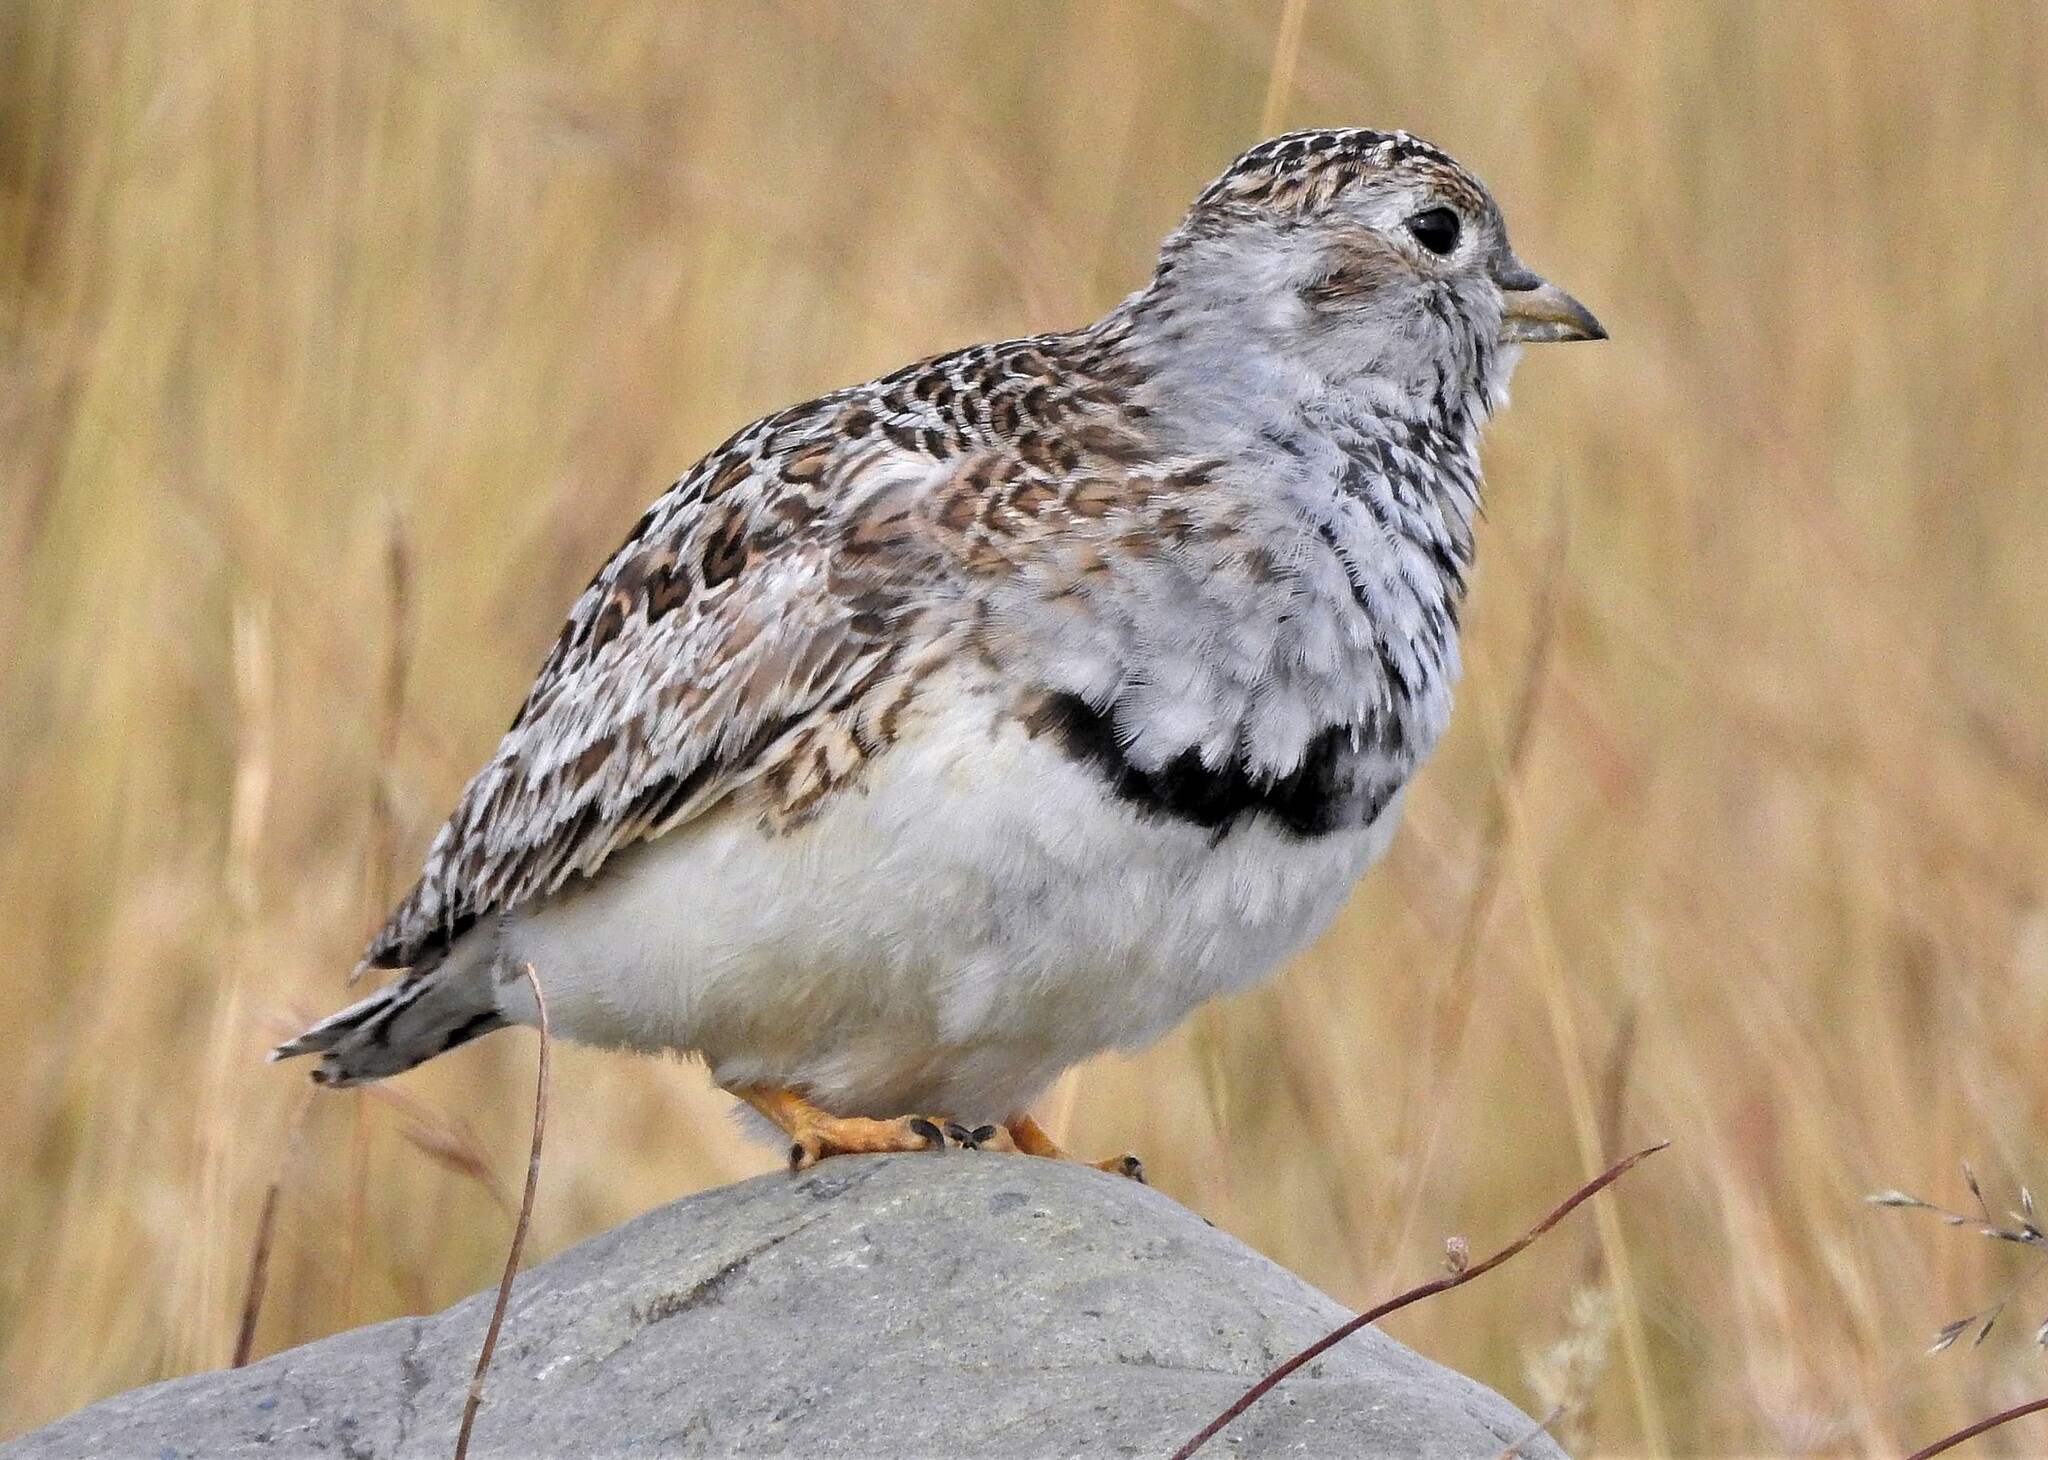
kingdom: Animalia
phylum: Chordata
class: Aves
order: Charadriiformes
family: Thinocoridae
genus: Thinocorus
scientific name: Thinocorus rumicivorus
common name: Least seedsnipe
